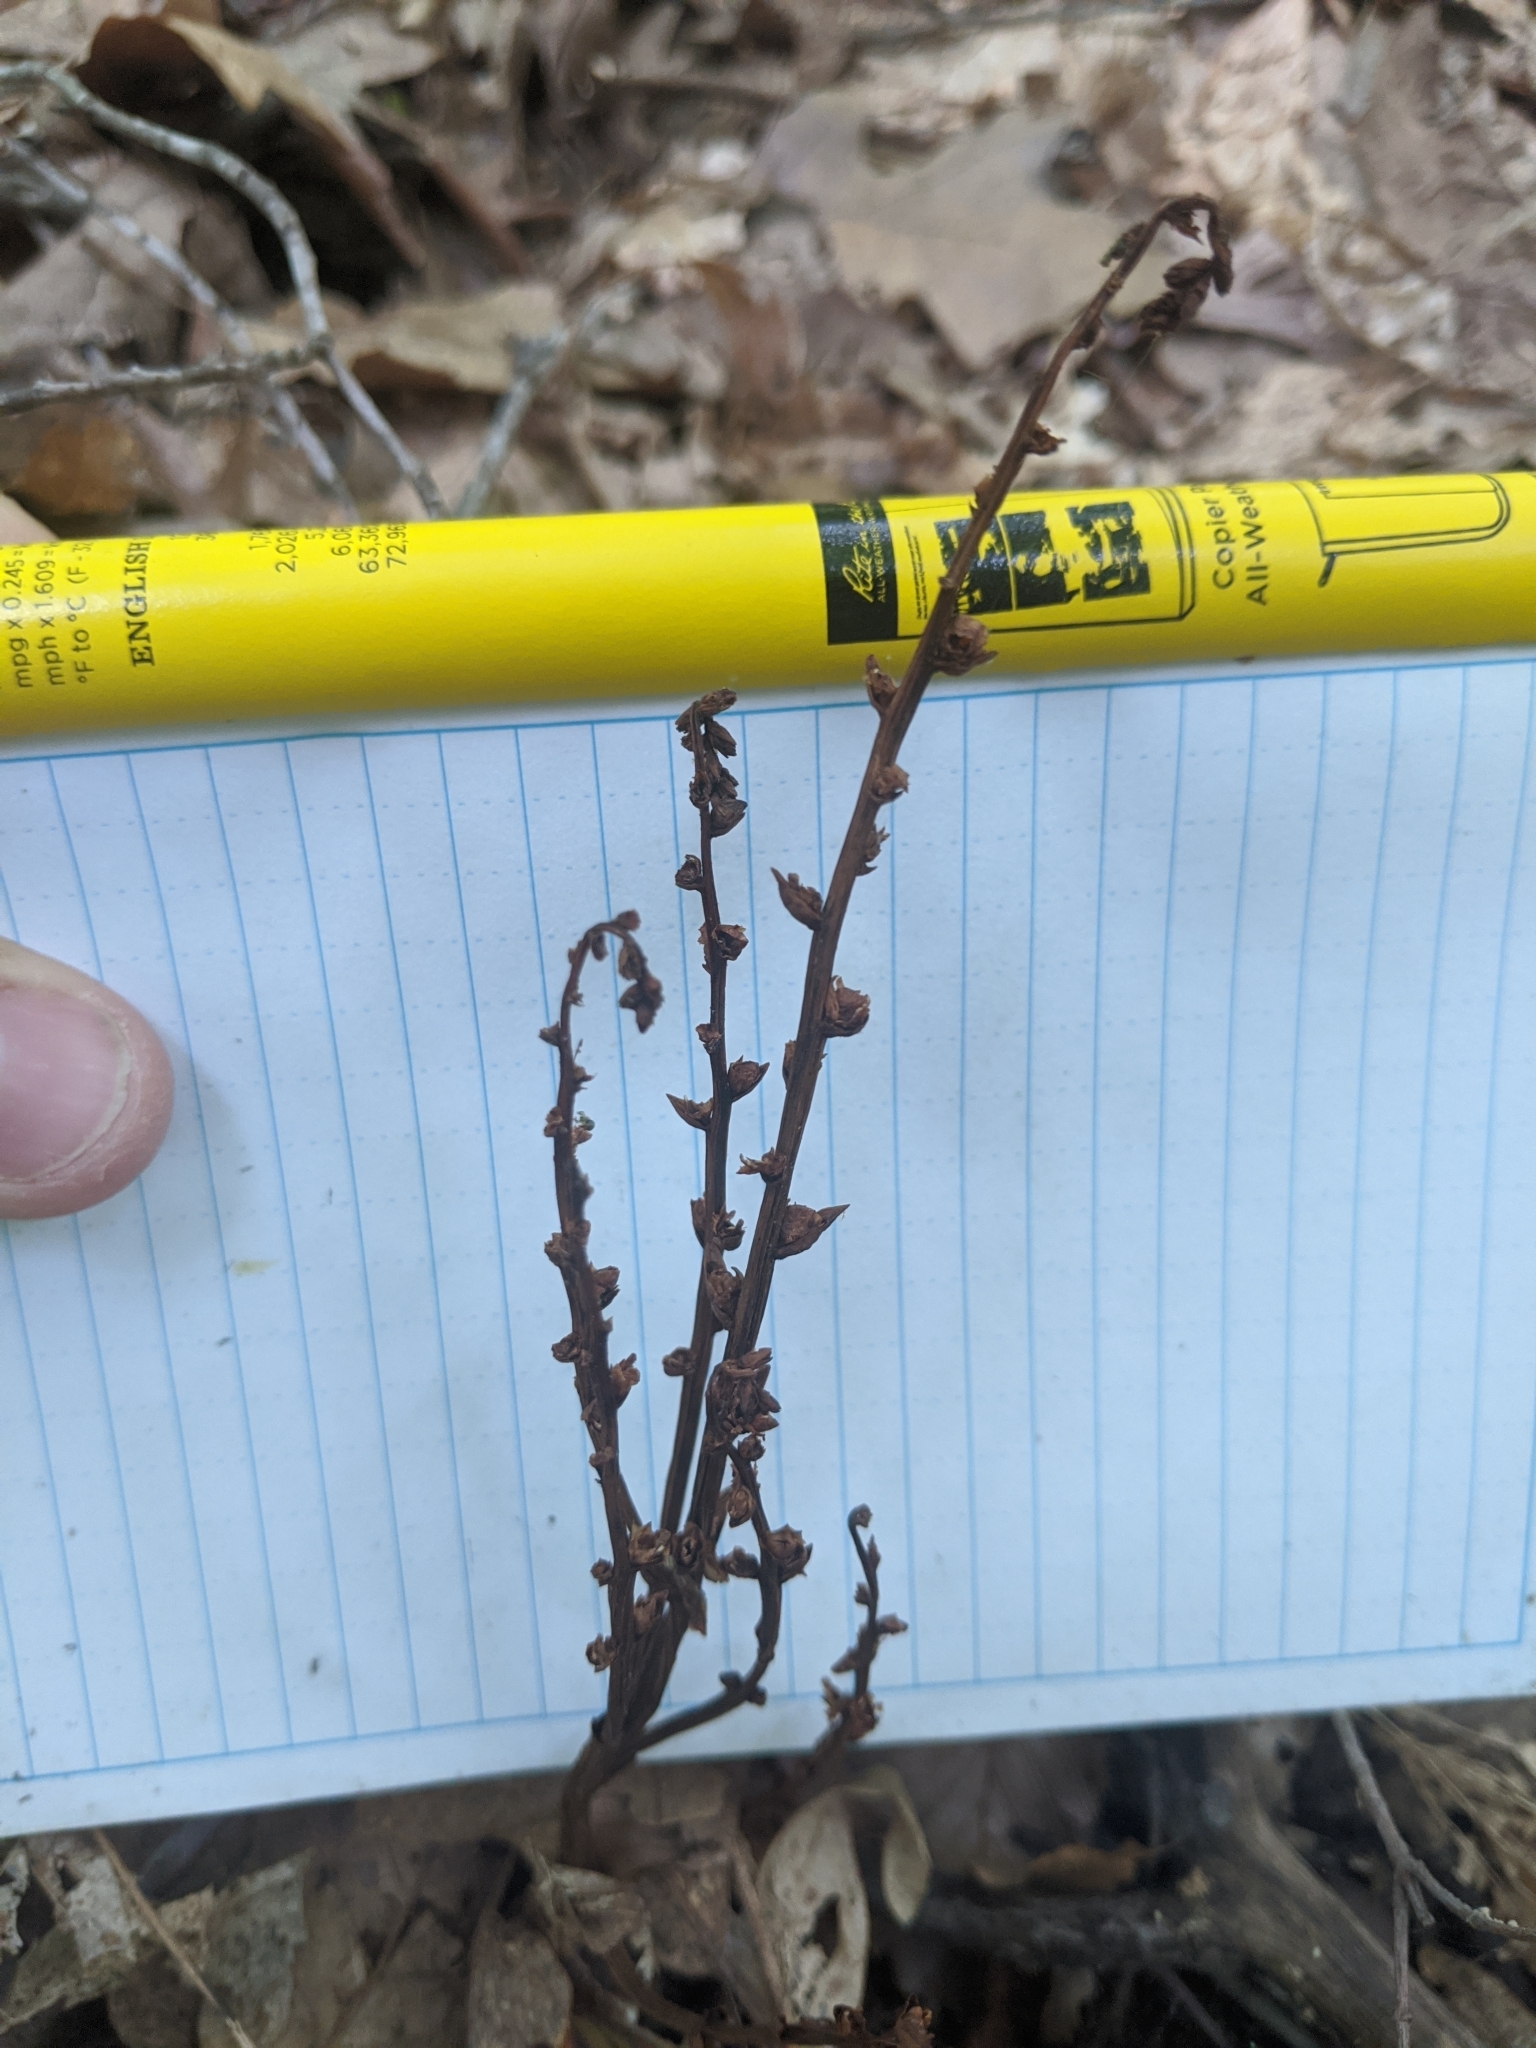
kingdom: Plantae
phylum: Tracheophyta
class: Magnoliopsida
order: Lamiales
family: Orobanchaceae
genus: Epifagus
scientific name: Epifagus virginiana
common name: Beechdrops
